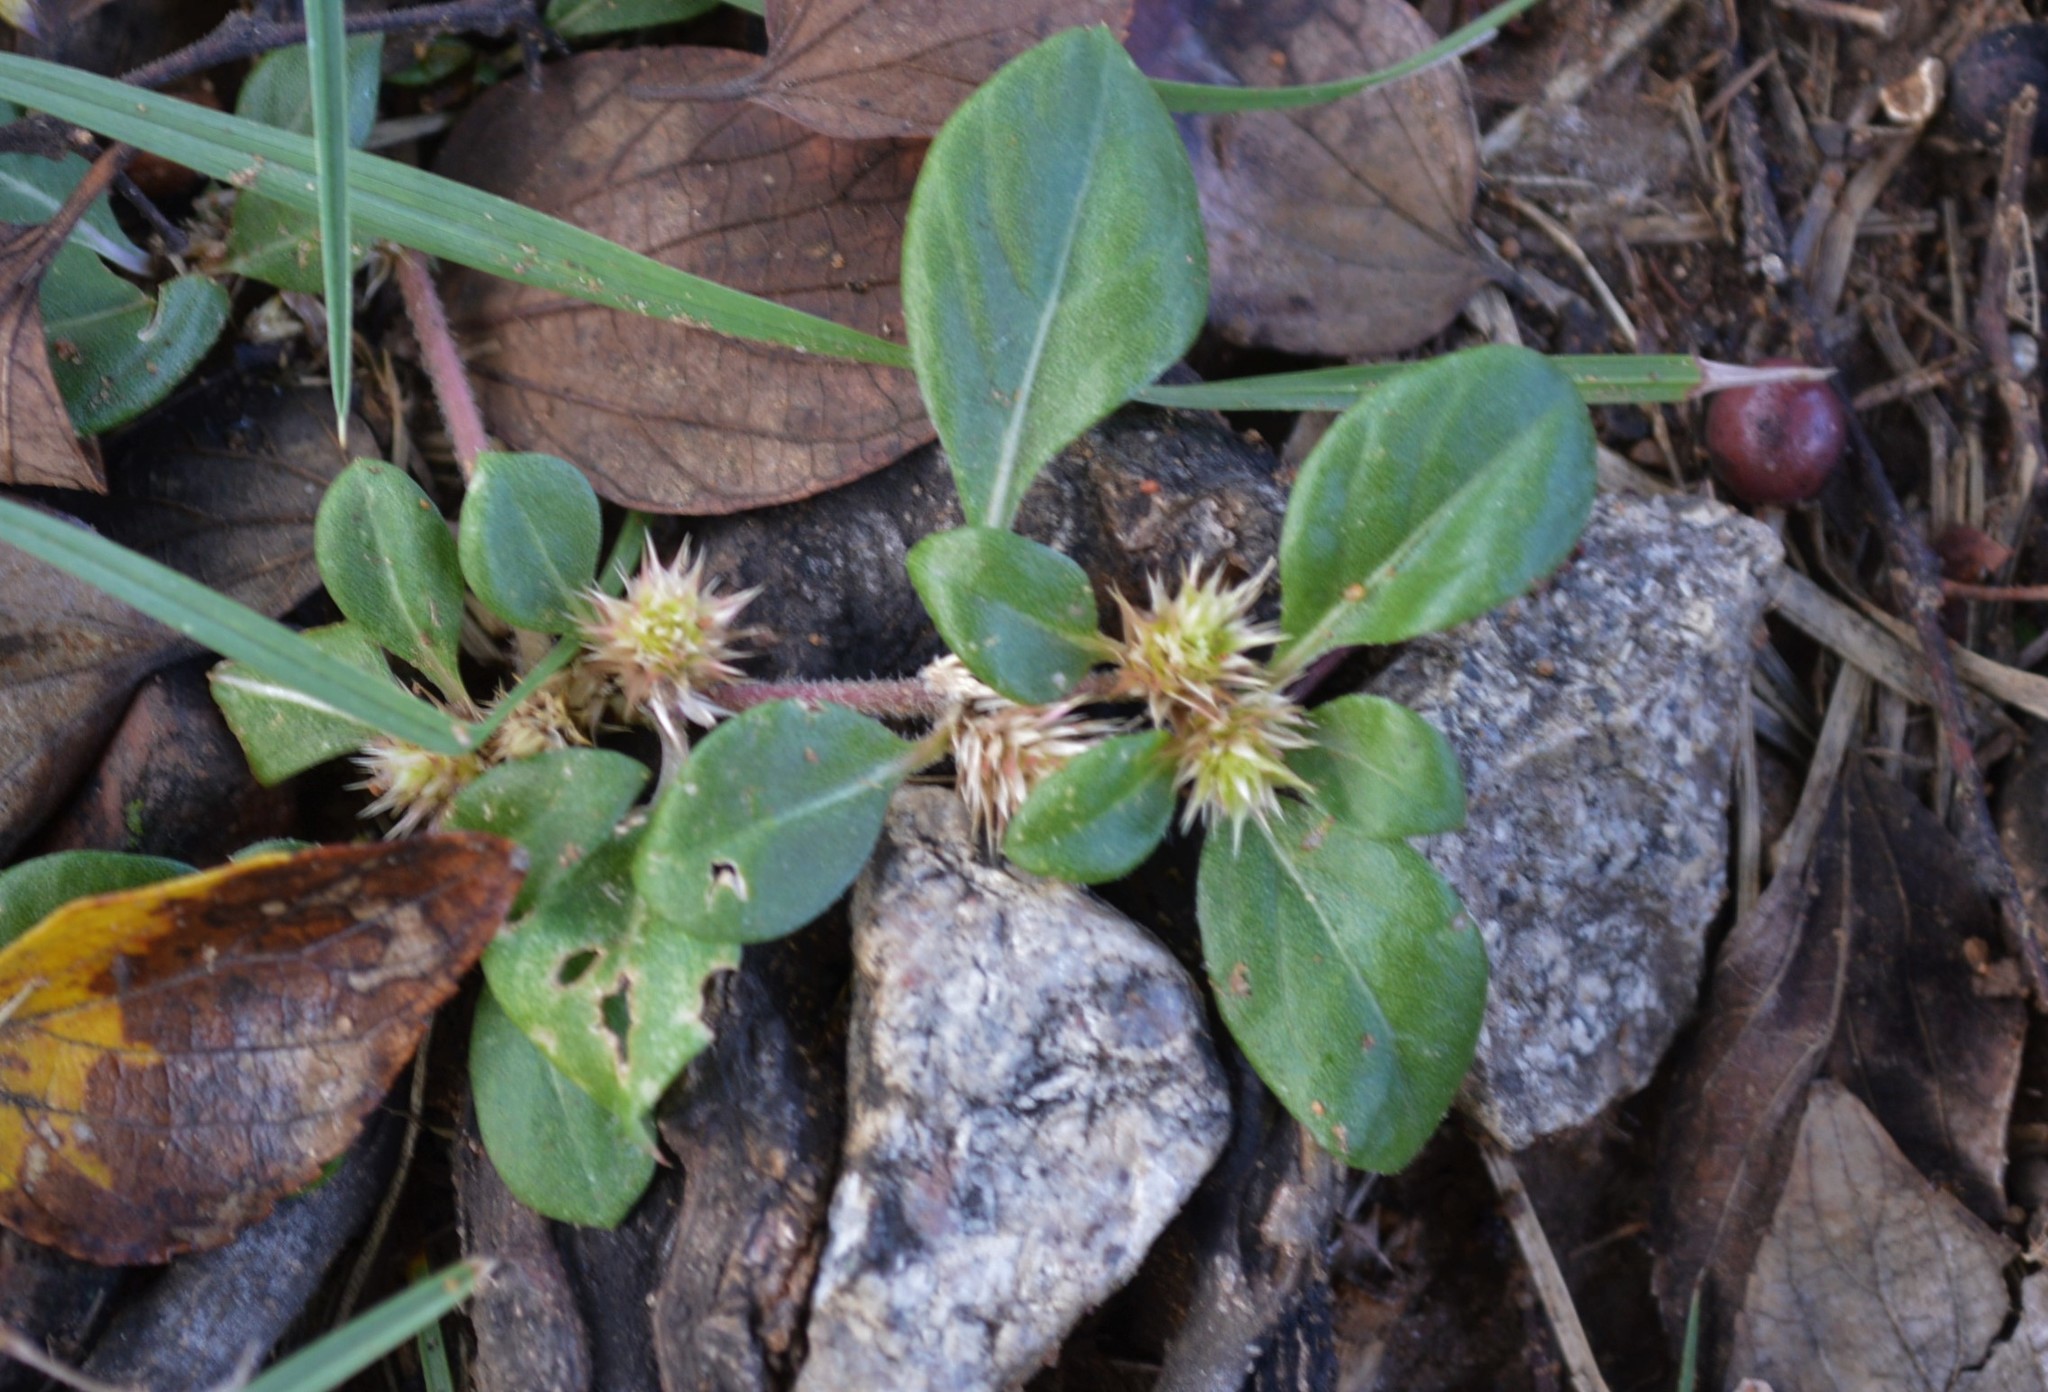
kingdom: Plantae
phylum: Tracheophyta
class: Magnoliopsida
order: Caryophyllales
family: Amaranthaceae
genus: Alternanthera
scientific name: Alternanthera pungens
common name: Khakiweed
